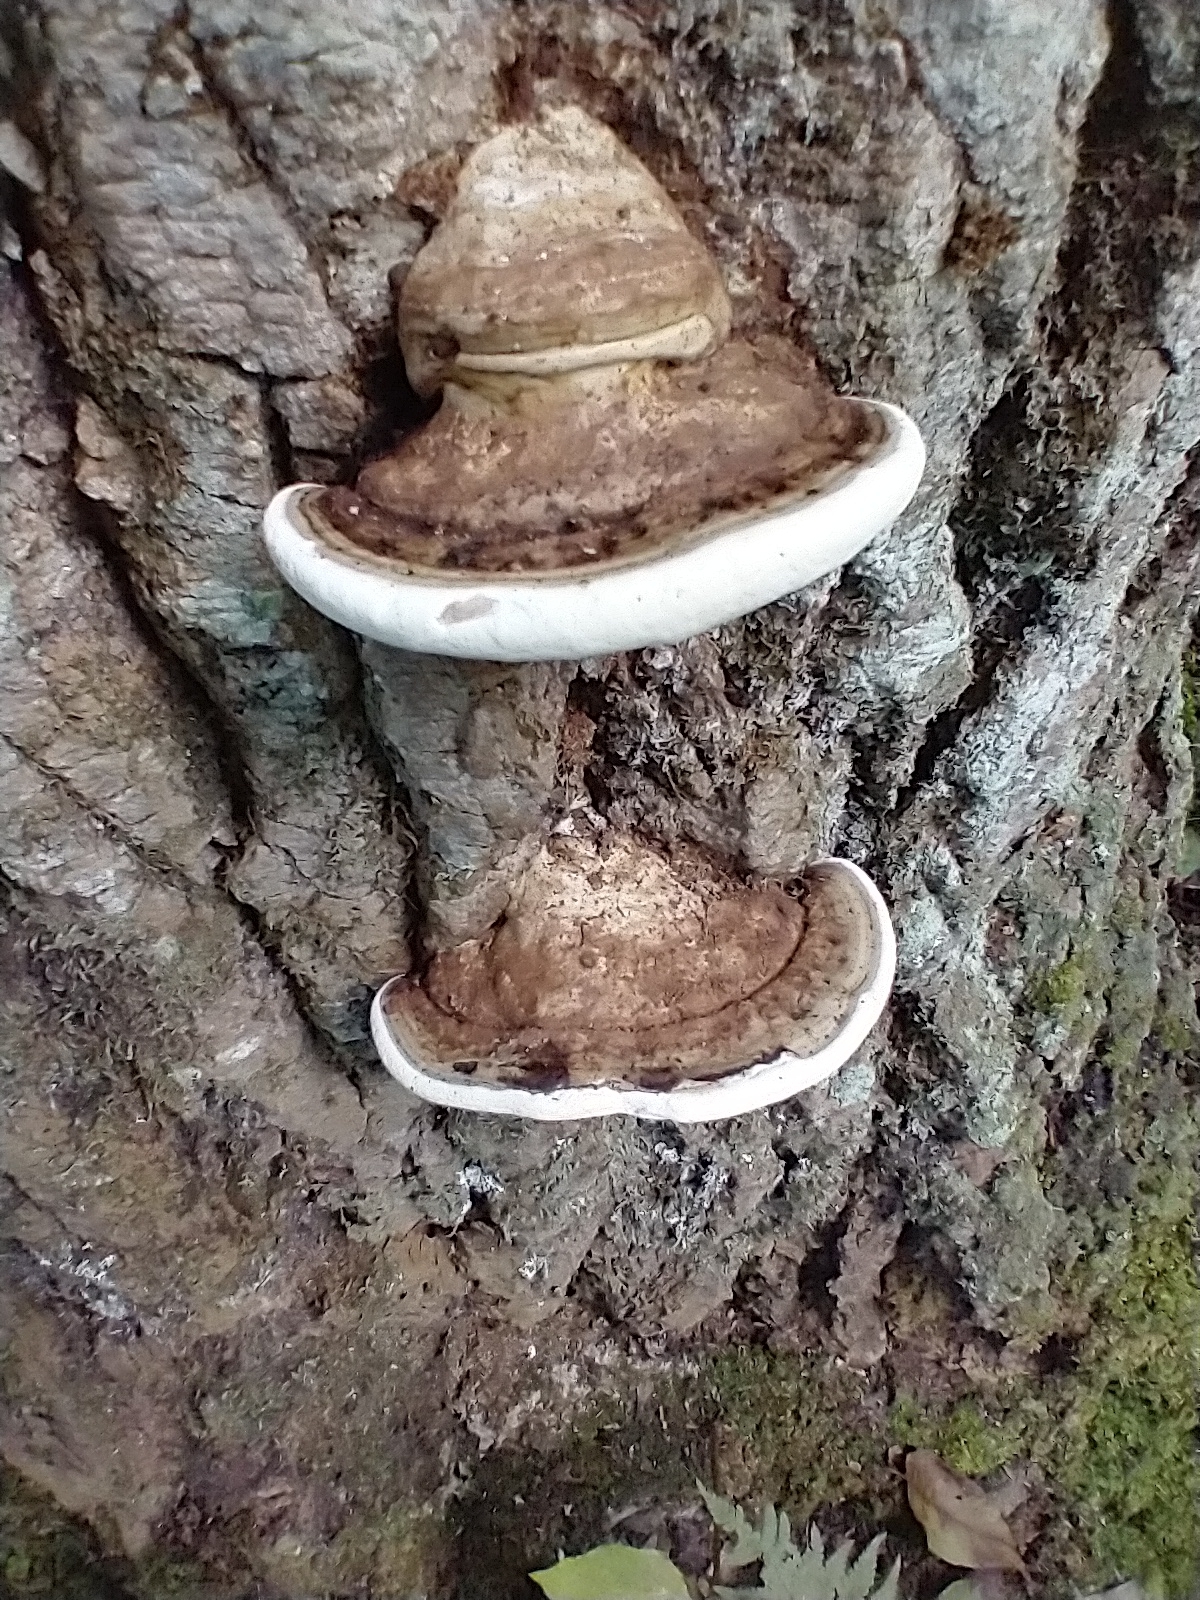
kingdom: Fungi
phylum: Basidiomycota
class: Agaricomycetes
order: Polyporales
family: Polyporaceae
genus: Ganoderma
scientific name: Ganoderma applanatum
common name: Artist's bracket
